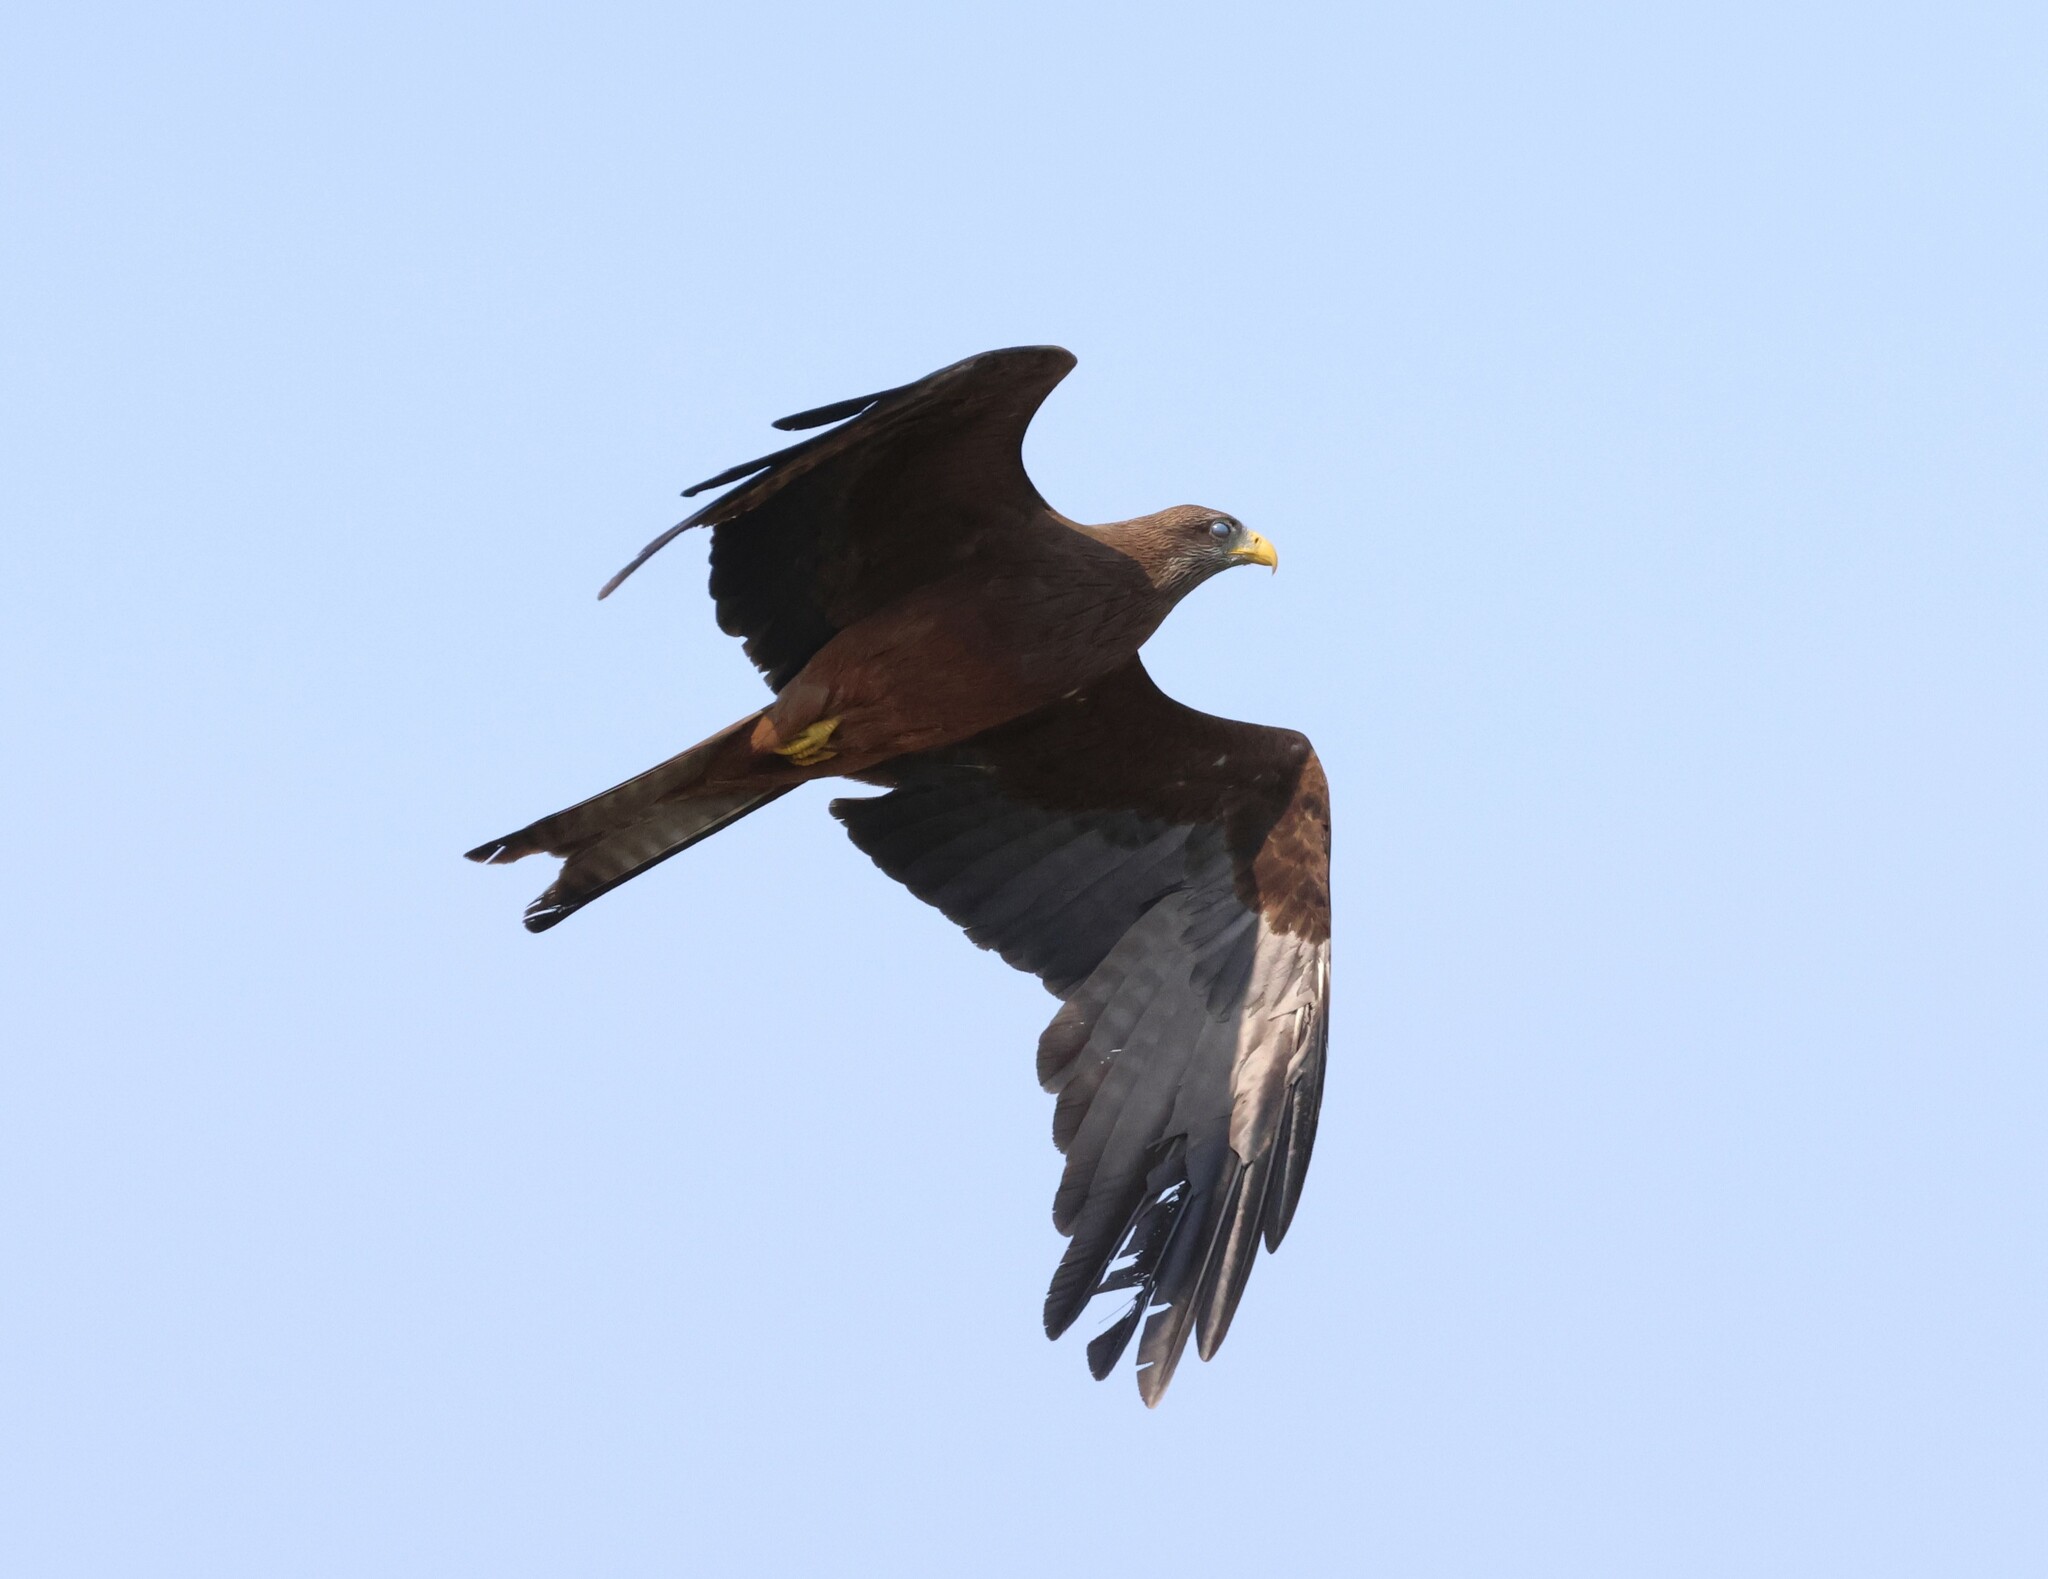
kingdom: Animalia
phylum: Chordata
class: Aves
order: Accipitriformes
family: Accipitridae
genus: Milvus
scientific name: Milvus migrans
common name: Black kite
